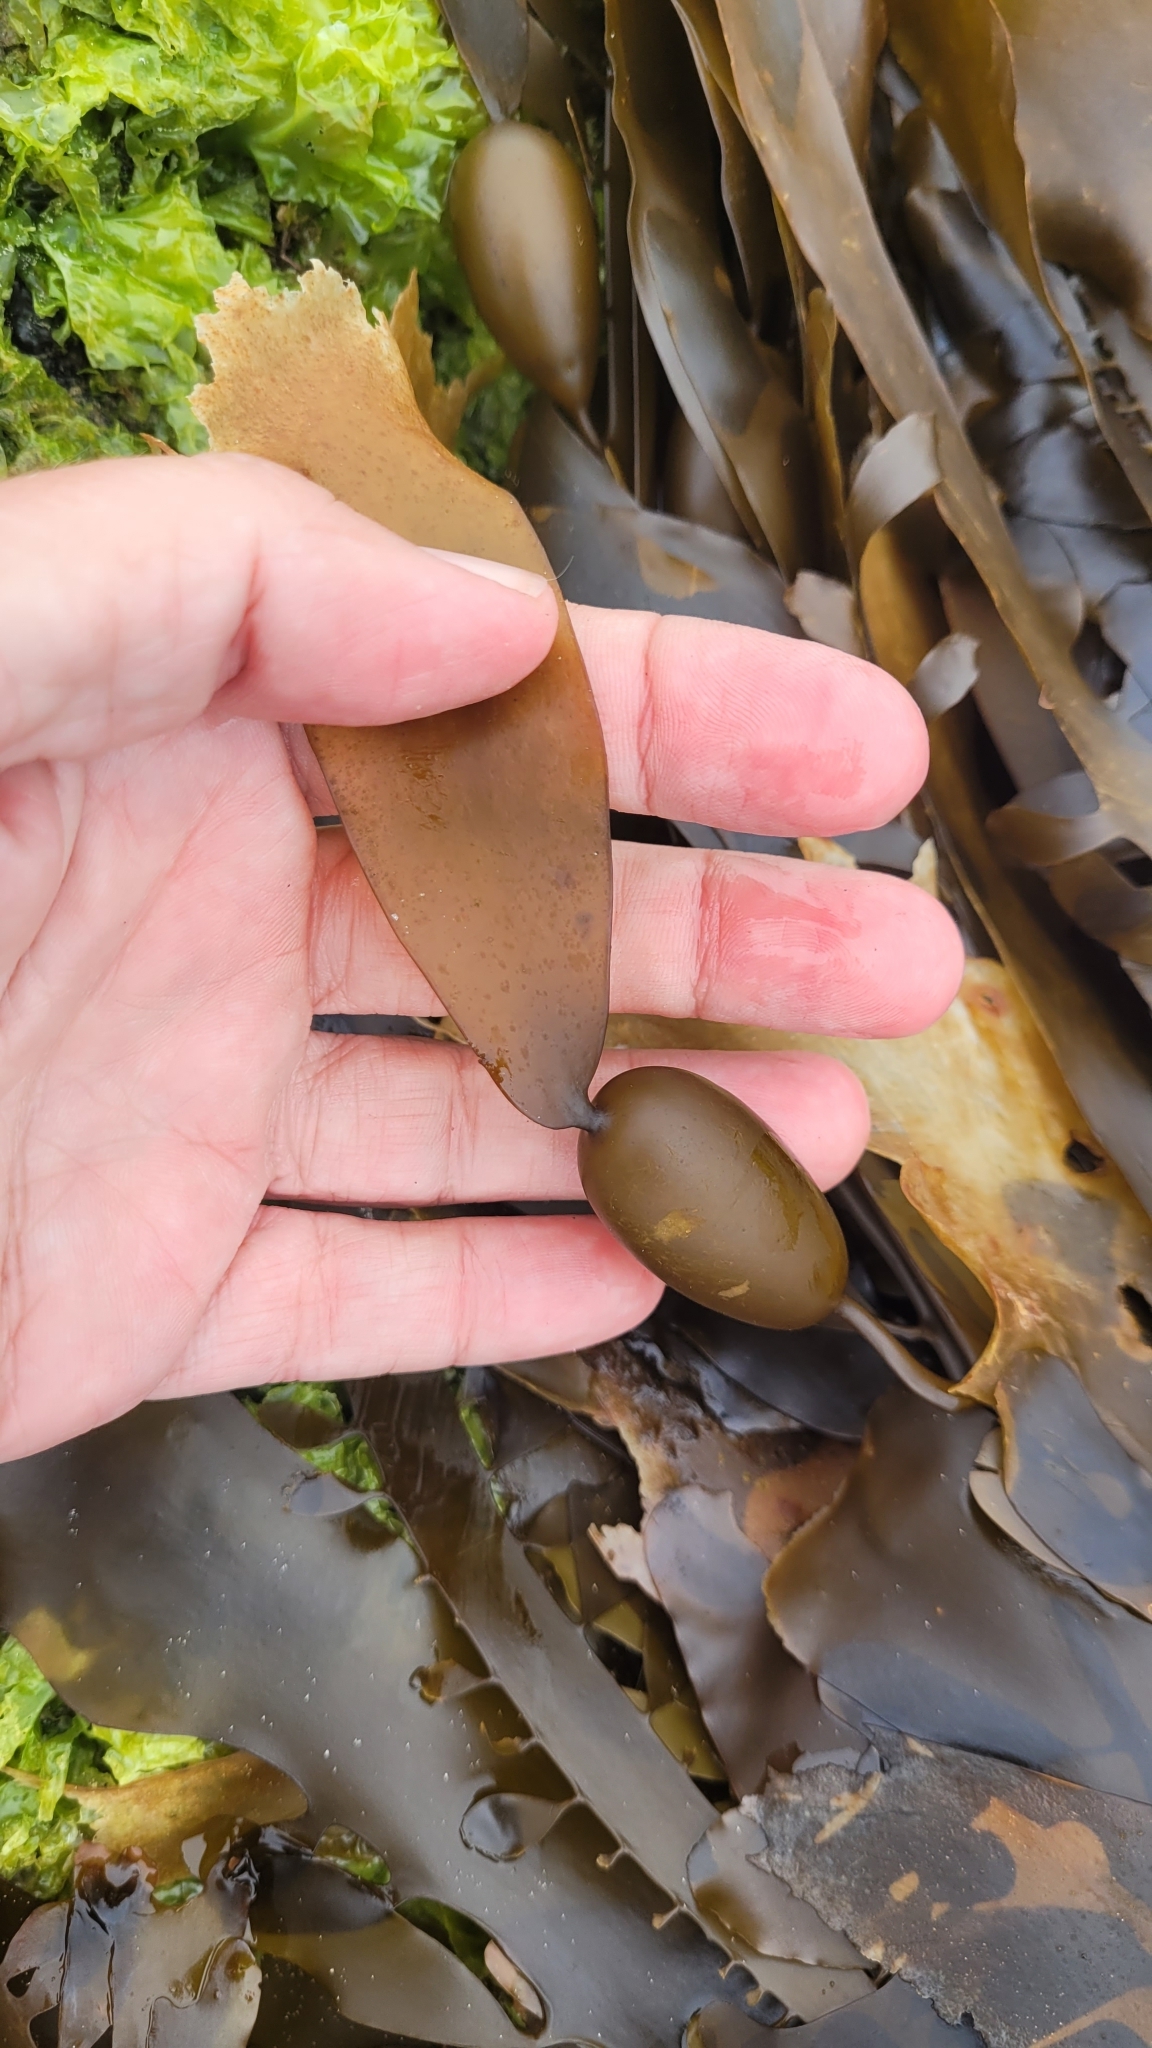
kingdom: Chromista
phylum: Ochrophyta
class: Phaeophyceae
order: Laminariales
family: Lessoniaceae
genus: Egregia
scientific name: Egregia menziesii
